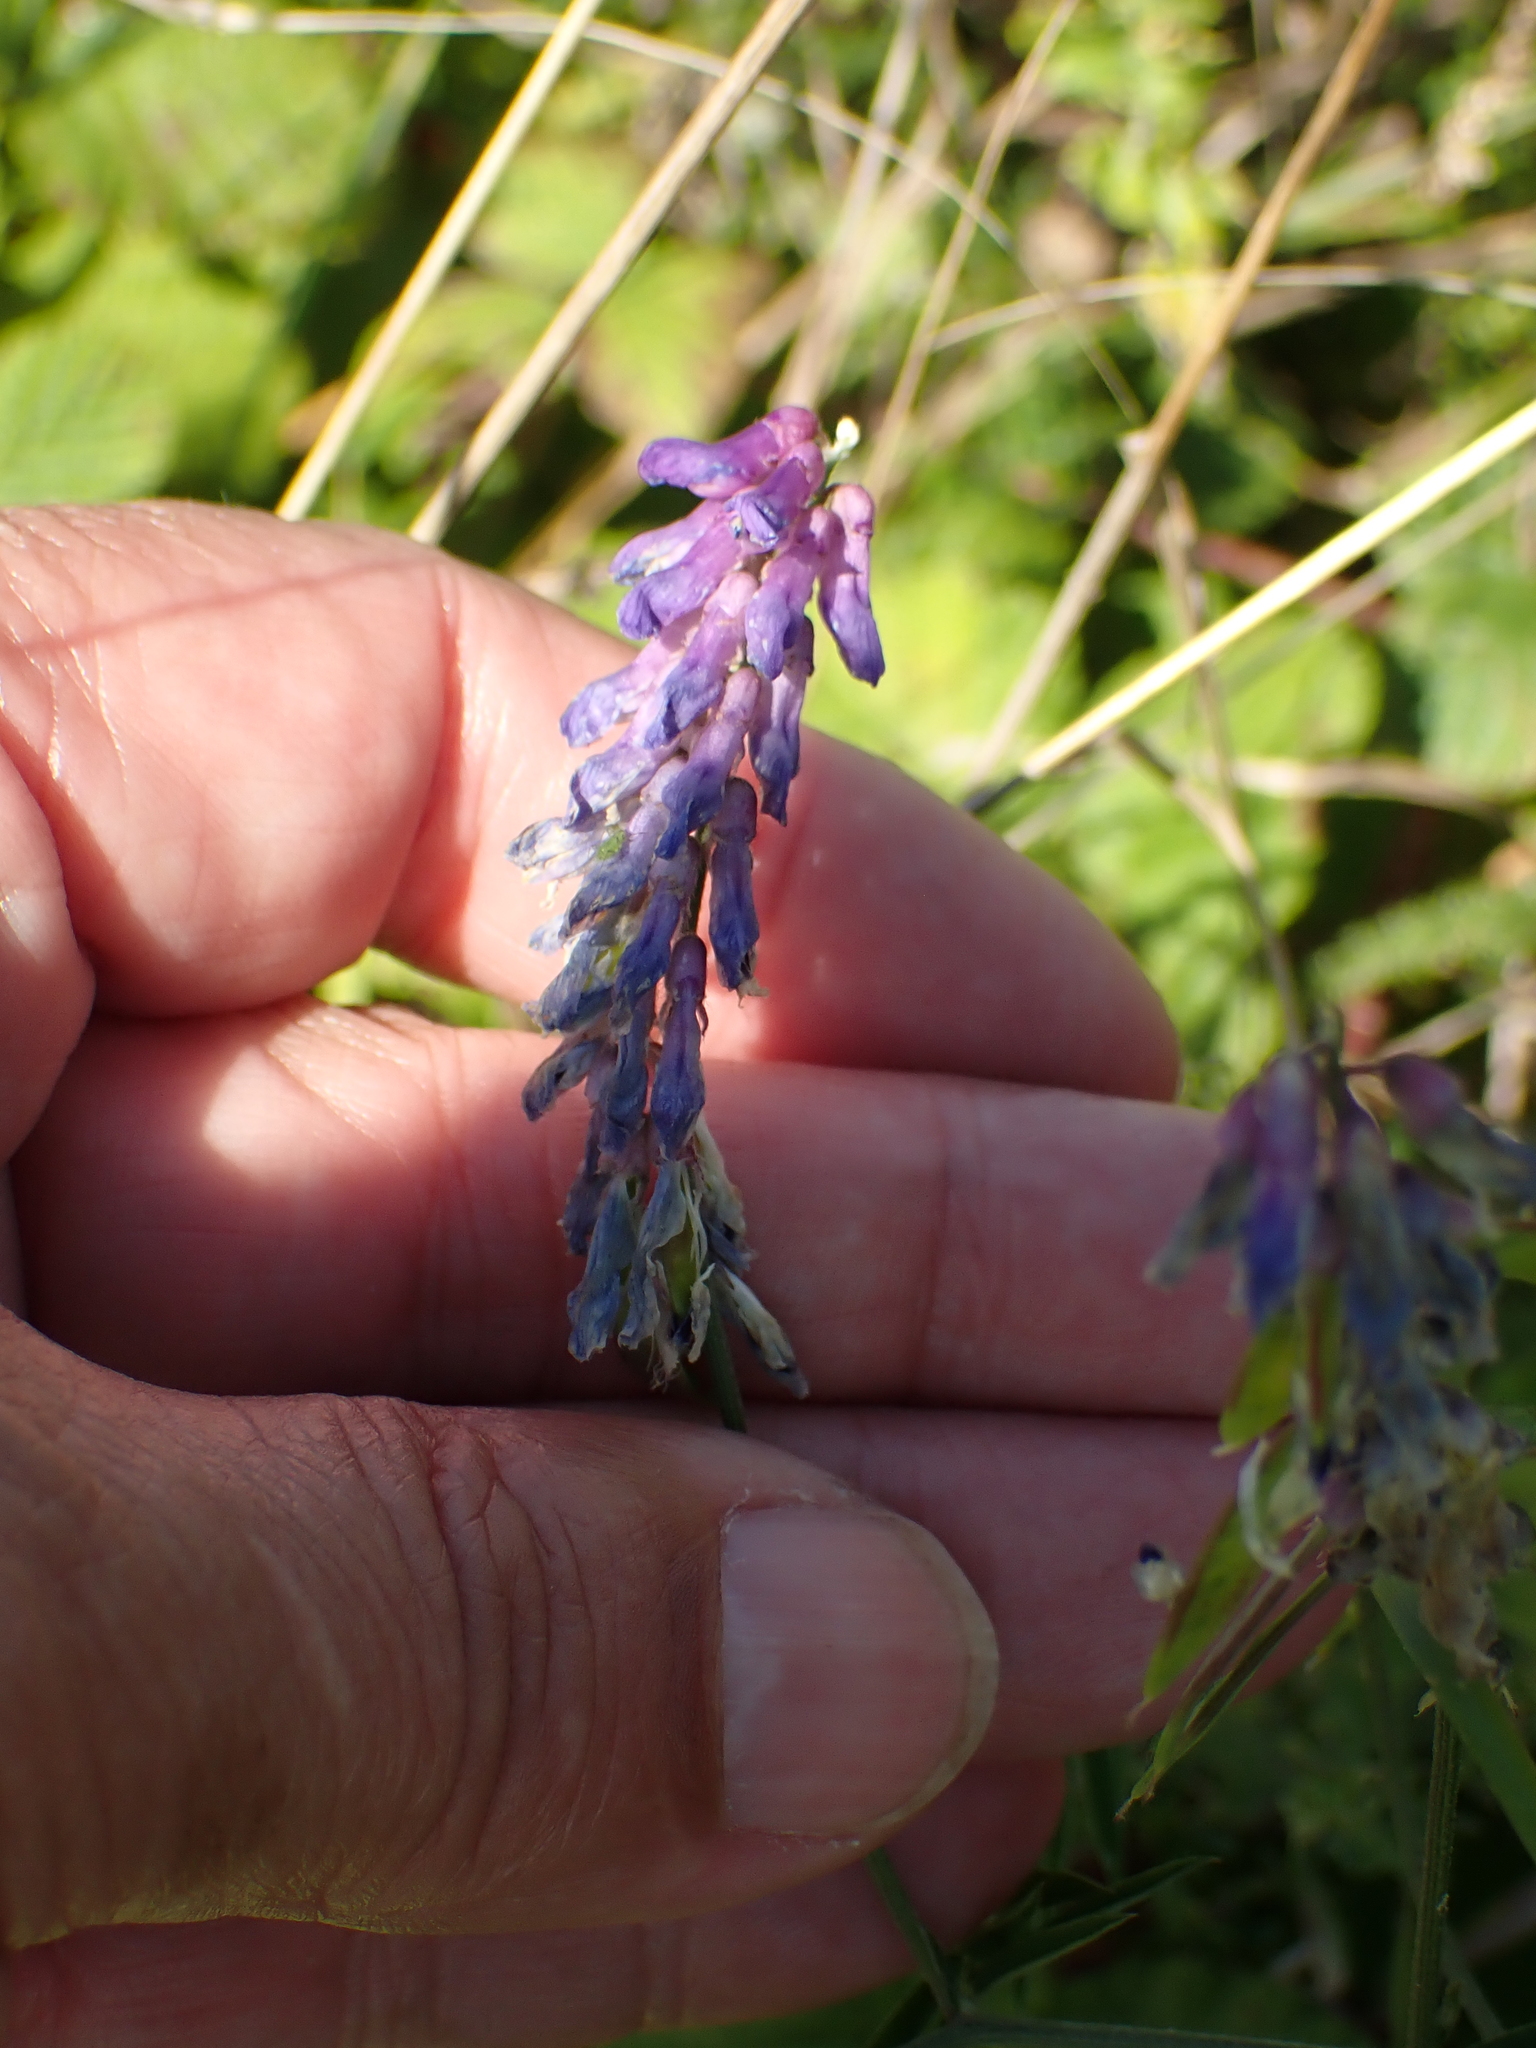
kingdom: Plantae
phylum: Tracheophyta
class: Magnoliopsida
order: Fabales
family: Fabaceae
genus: Vicia
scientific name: Vicia cracca
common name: Bird vetch
